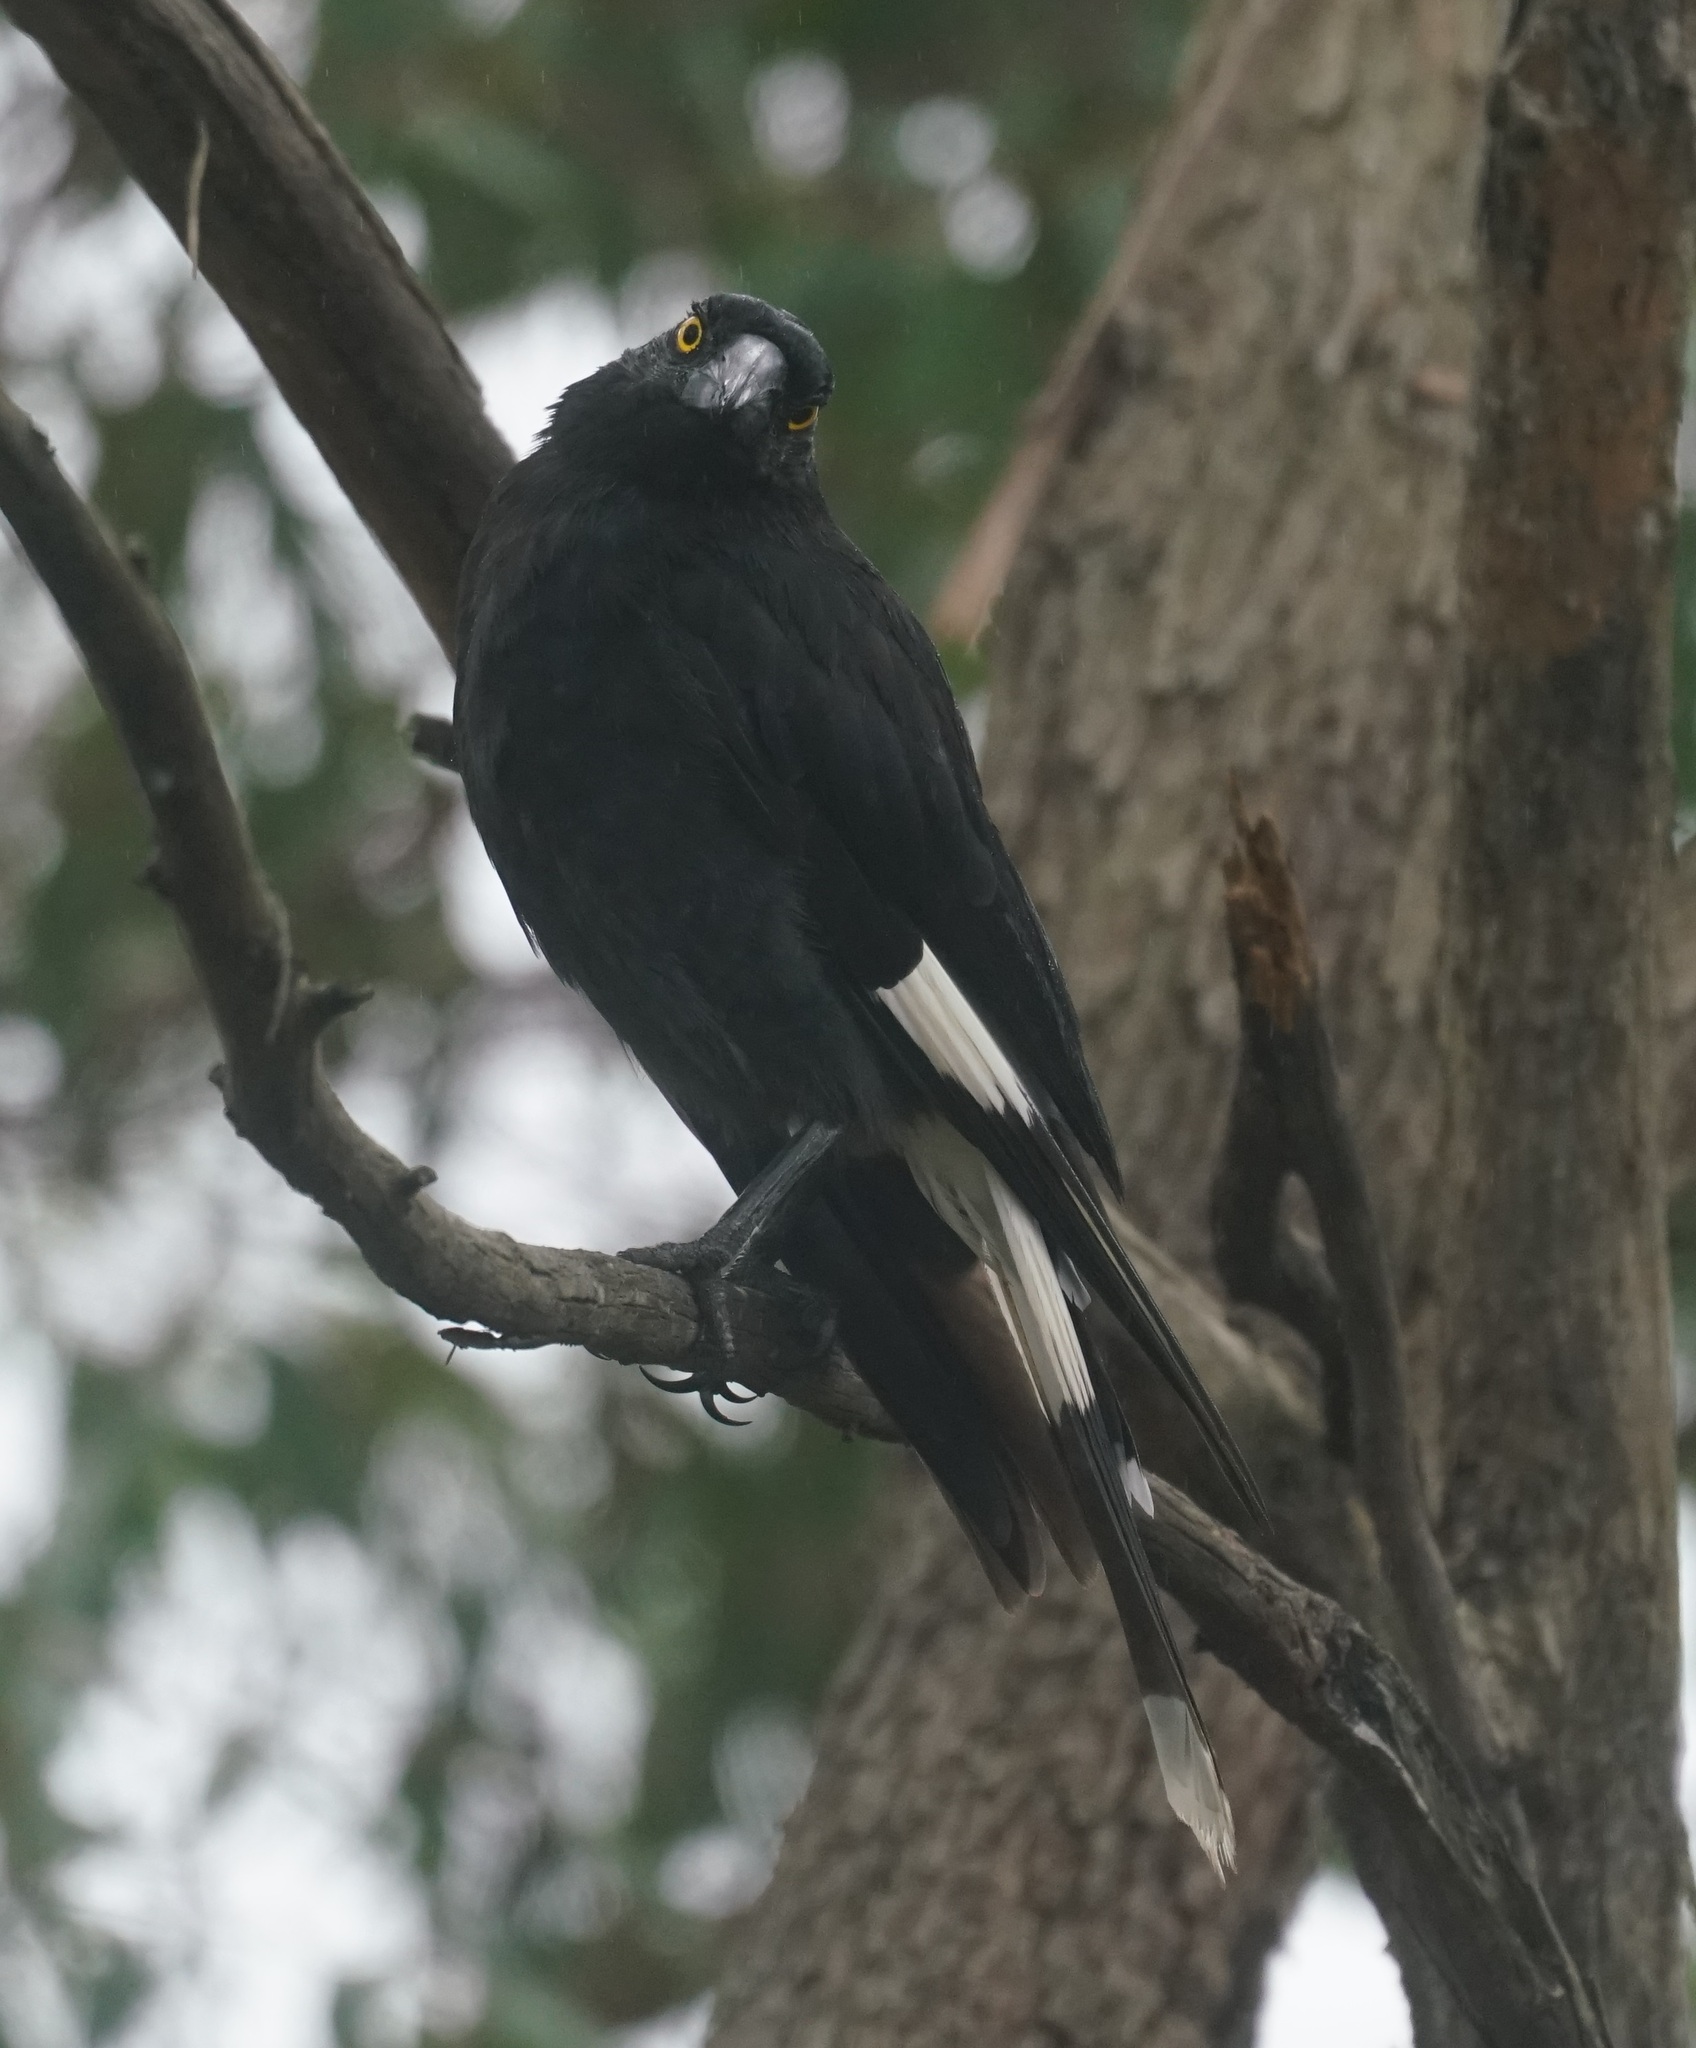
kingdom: Animalia
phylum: Chordata
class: Aves
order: Passeriformes
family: Cracticidae
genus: Strepera
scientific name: Strepera graculina
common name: Pied currawong
